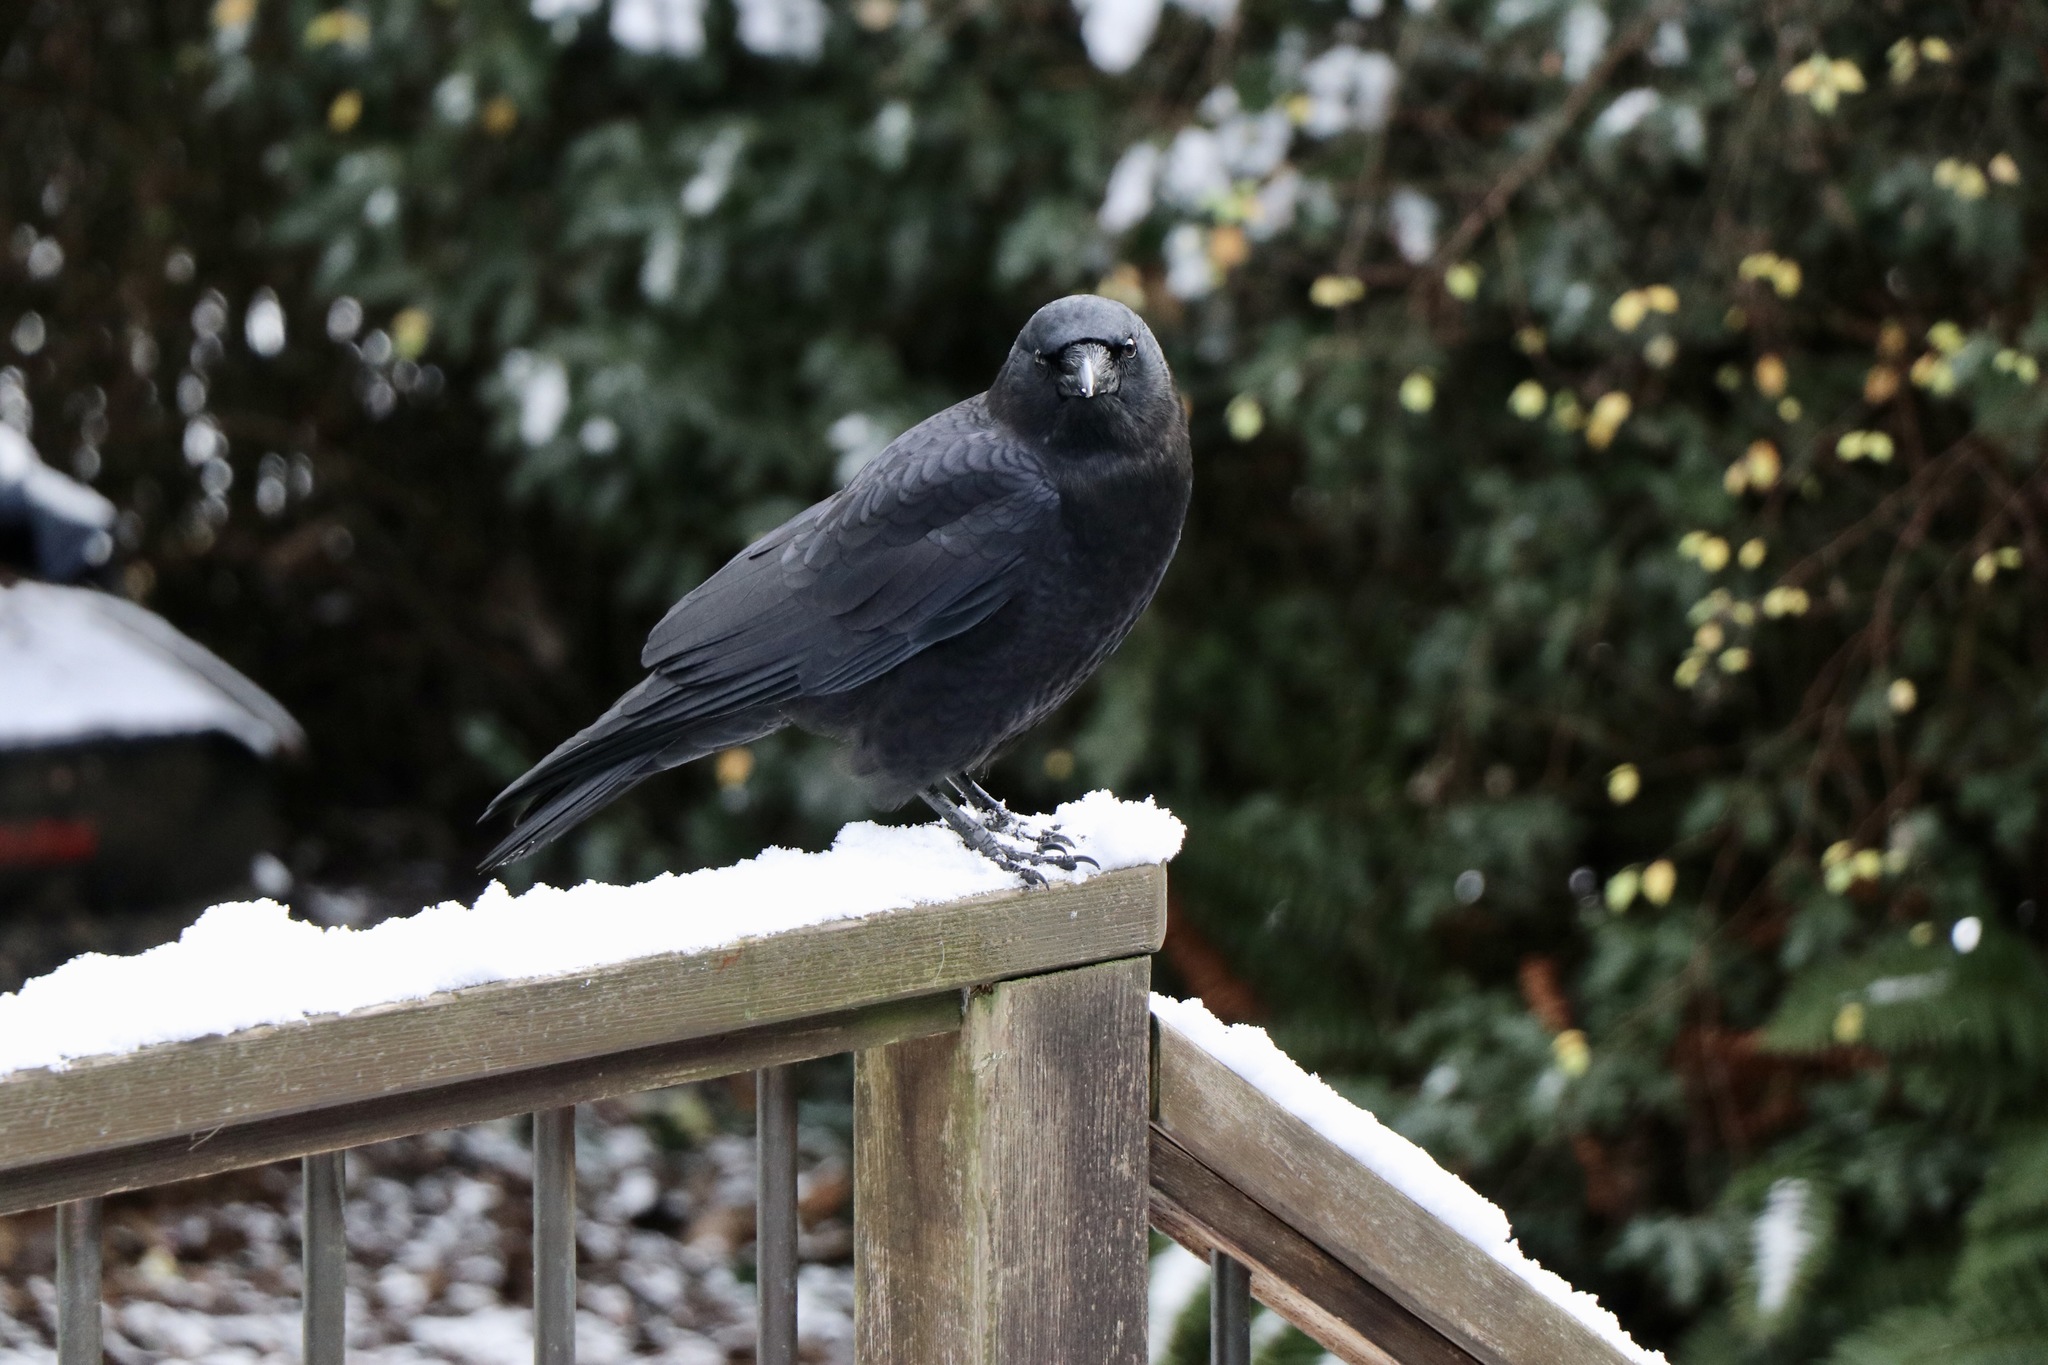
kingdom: Animalia
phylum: Chordata
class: Aves
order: Passeriformes
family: Corvidae
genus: Corvus
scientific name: Corvus brachyrhynchos
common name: American crow
